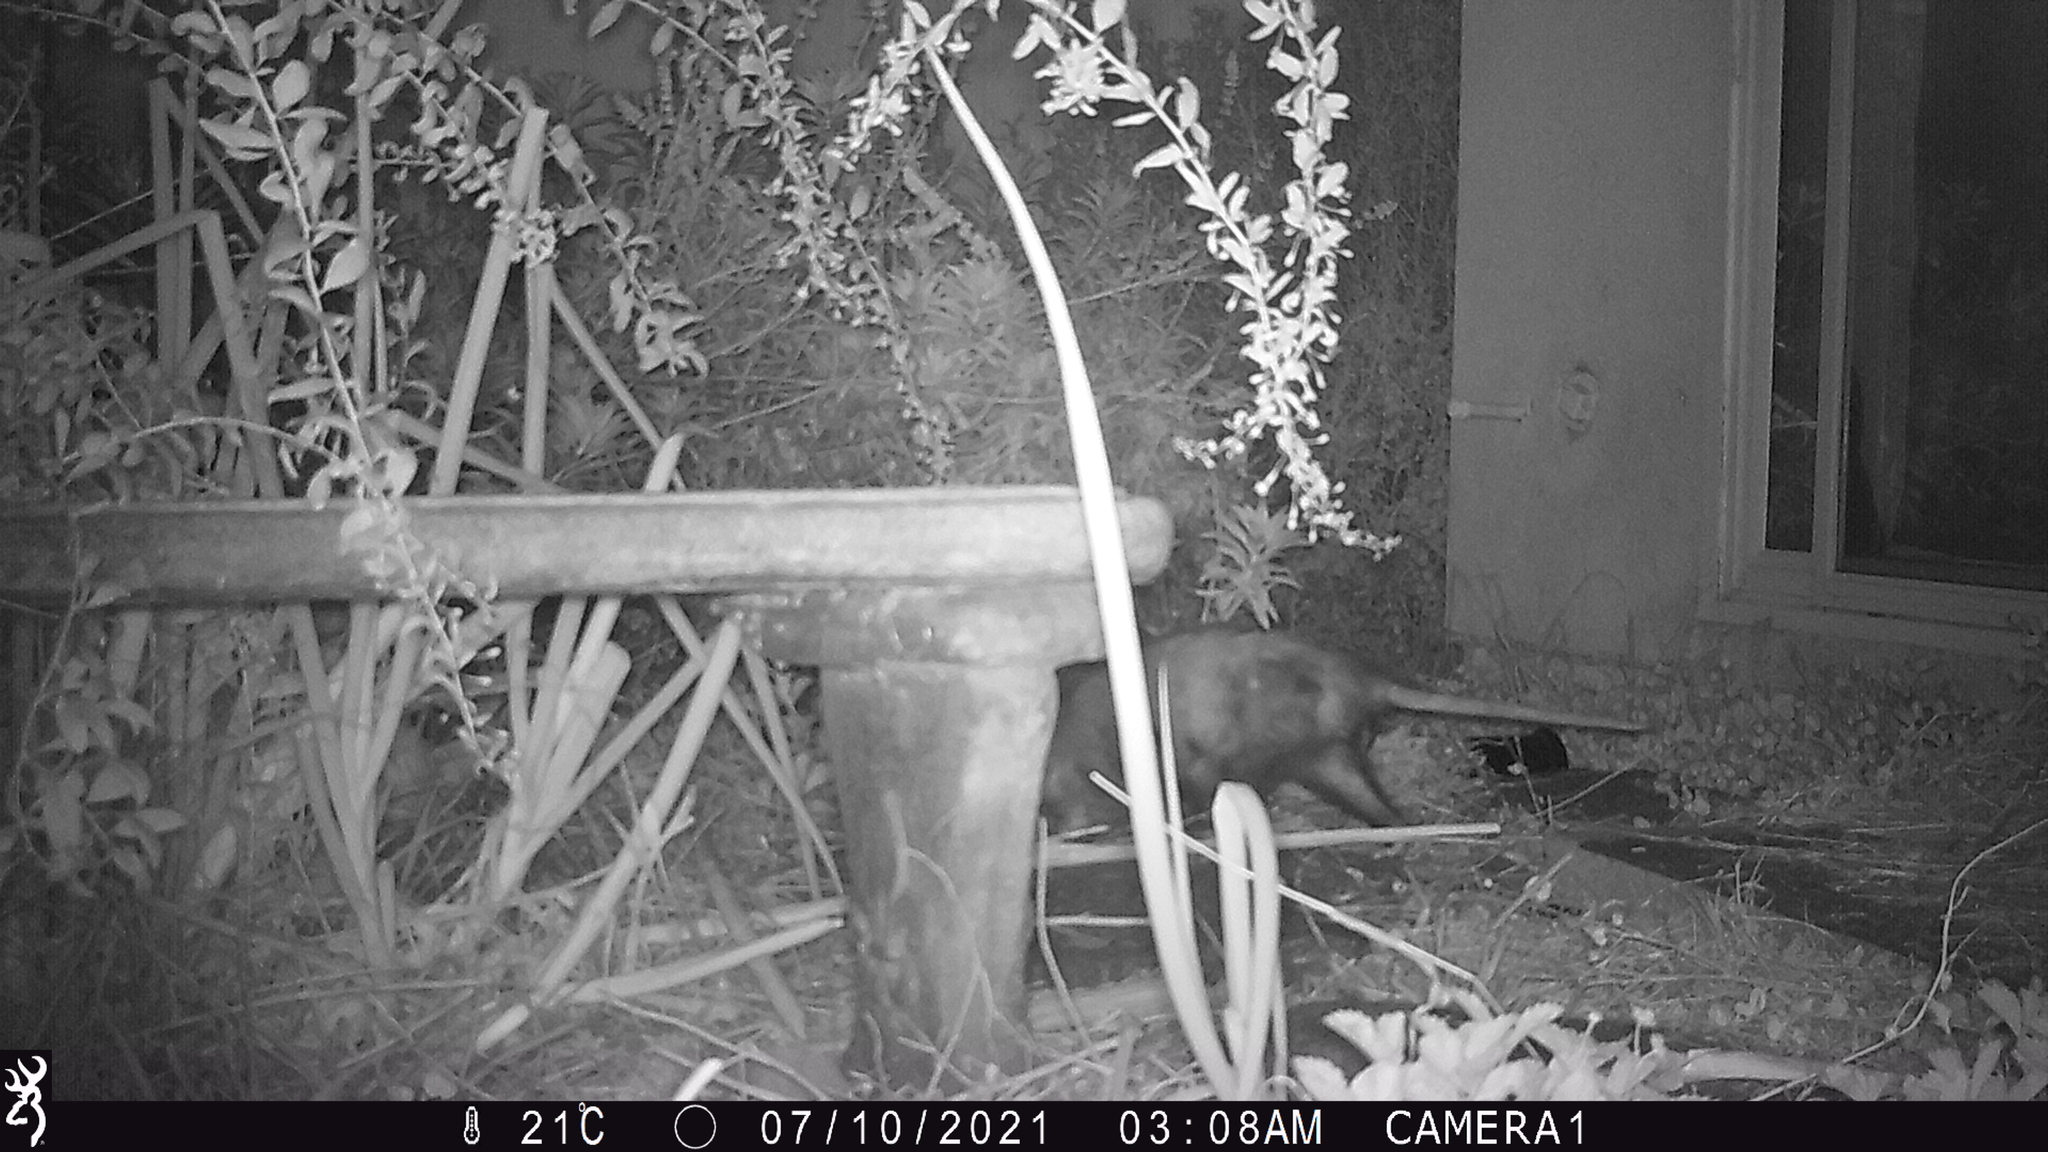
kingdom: Animalia
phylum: Chordata
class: Mammalia
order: Didelphimorphia
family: Didelphidae
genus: Didelphis
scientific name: Didelphis virginiana
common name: Virginia opossum
